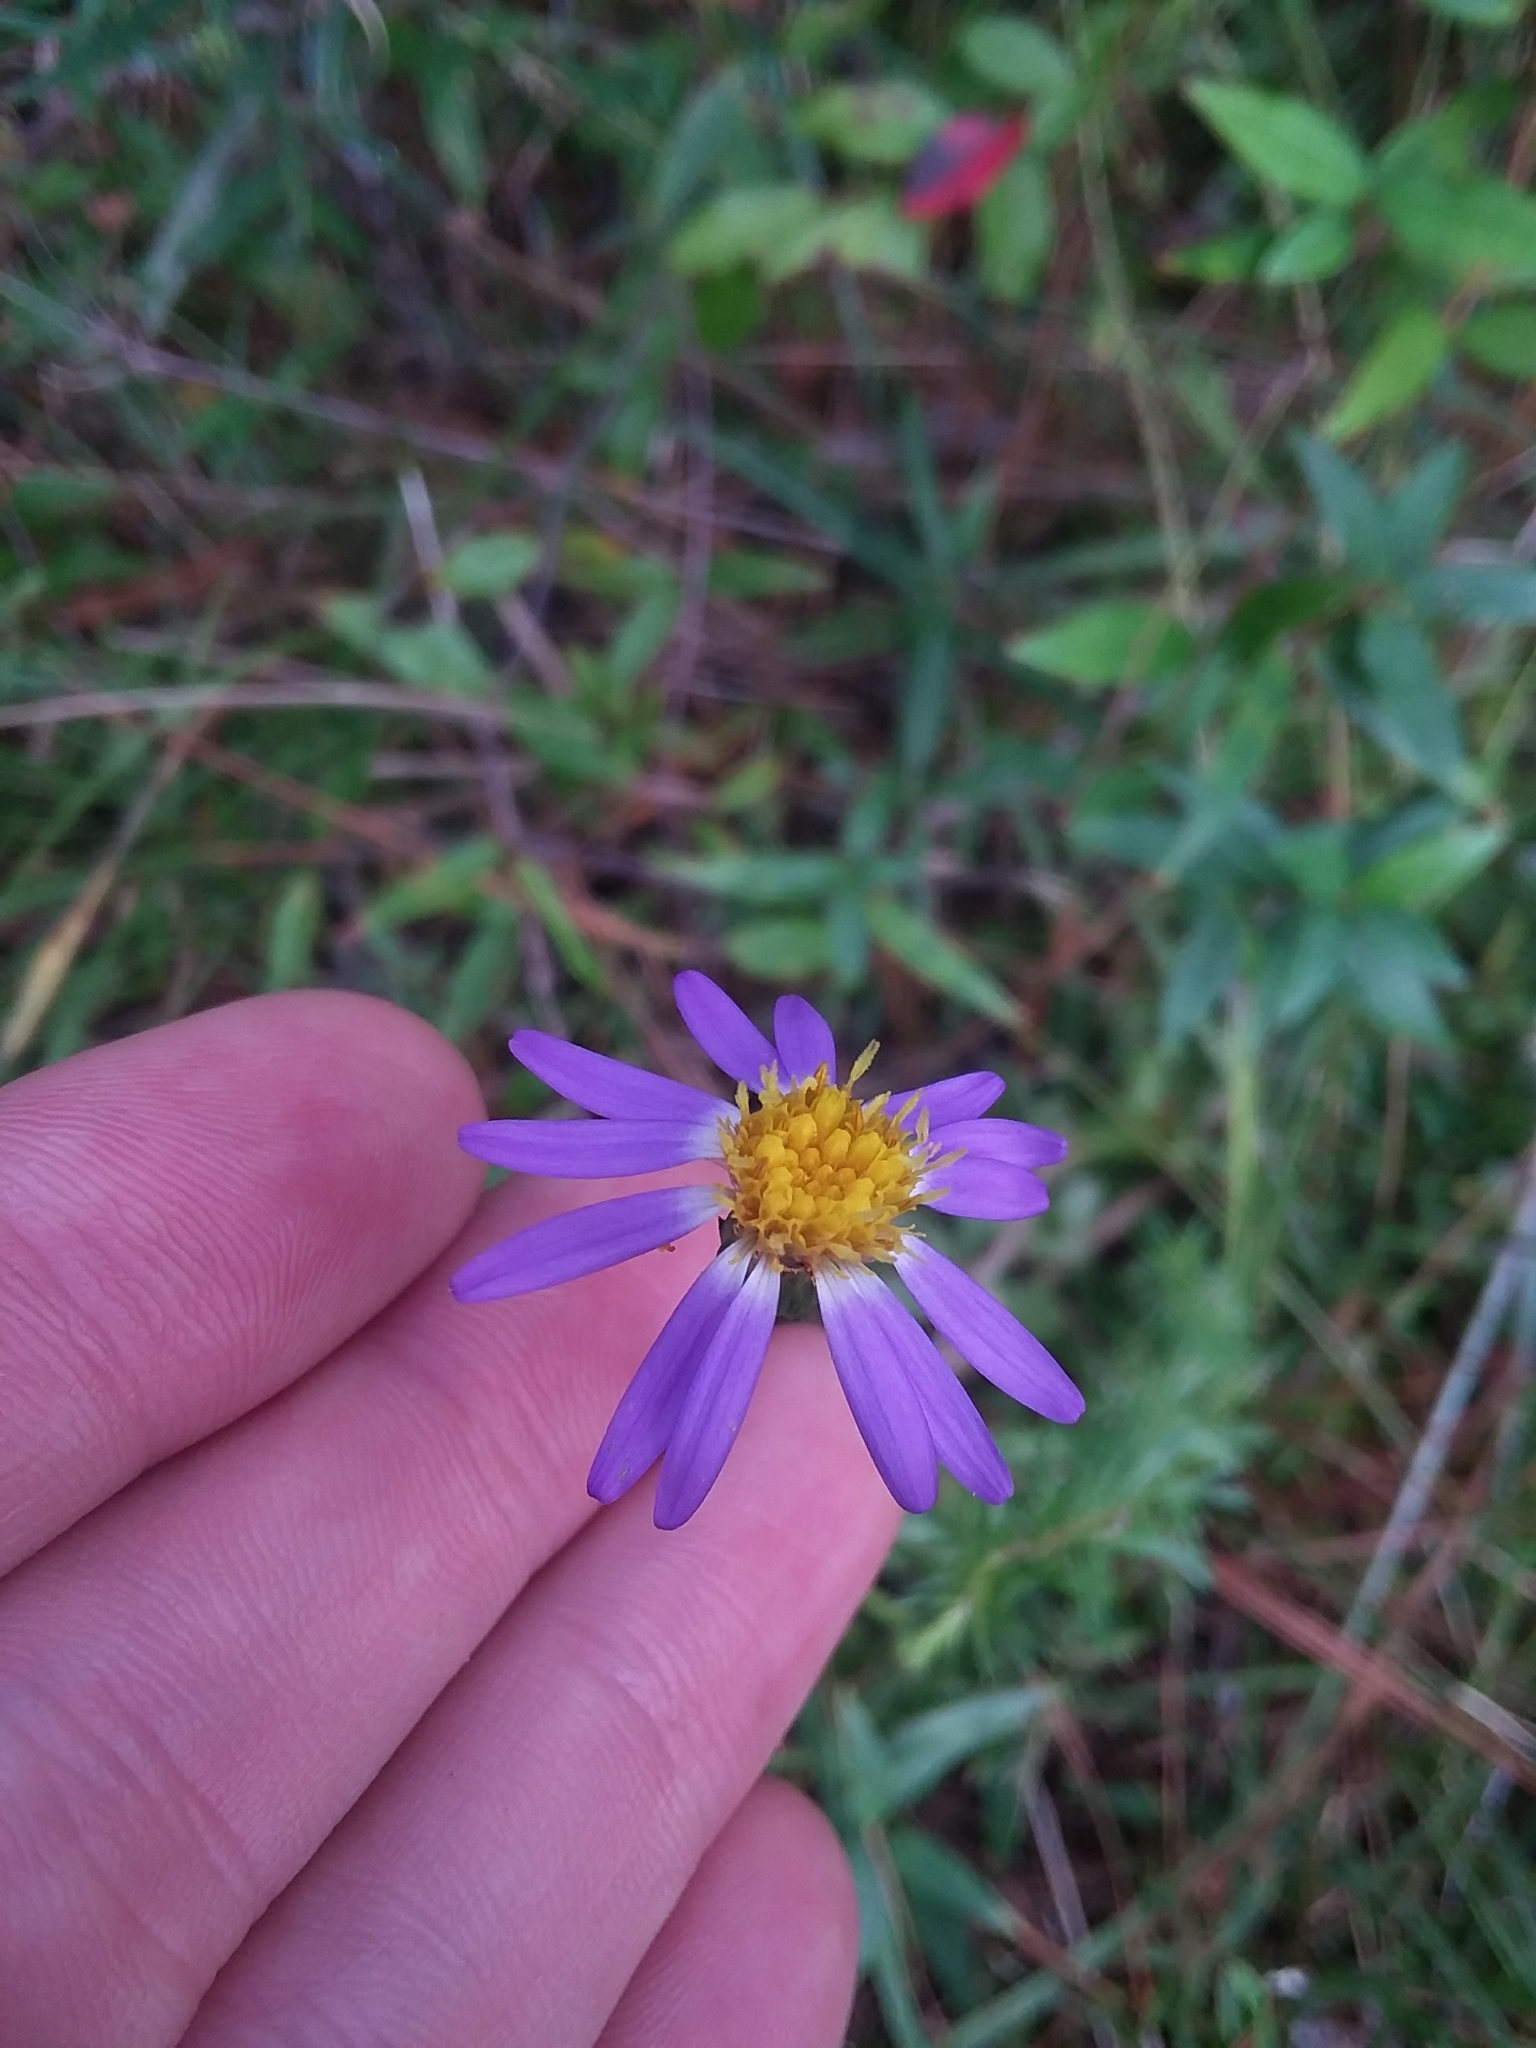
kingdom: Plantae
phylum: Tracheophyta
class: Magnoliopsida
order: Asterales
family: Asteraceae
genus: Ionactis
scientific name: Ionactis repens
